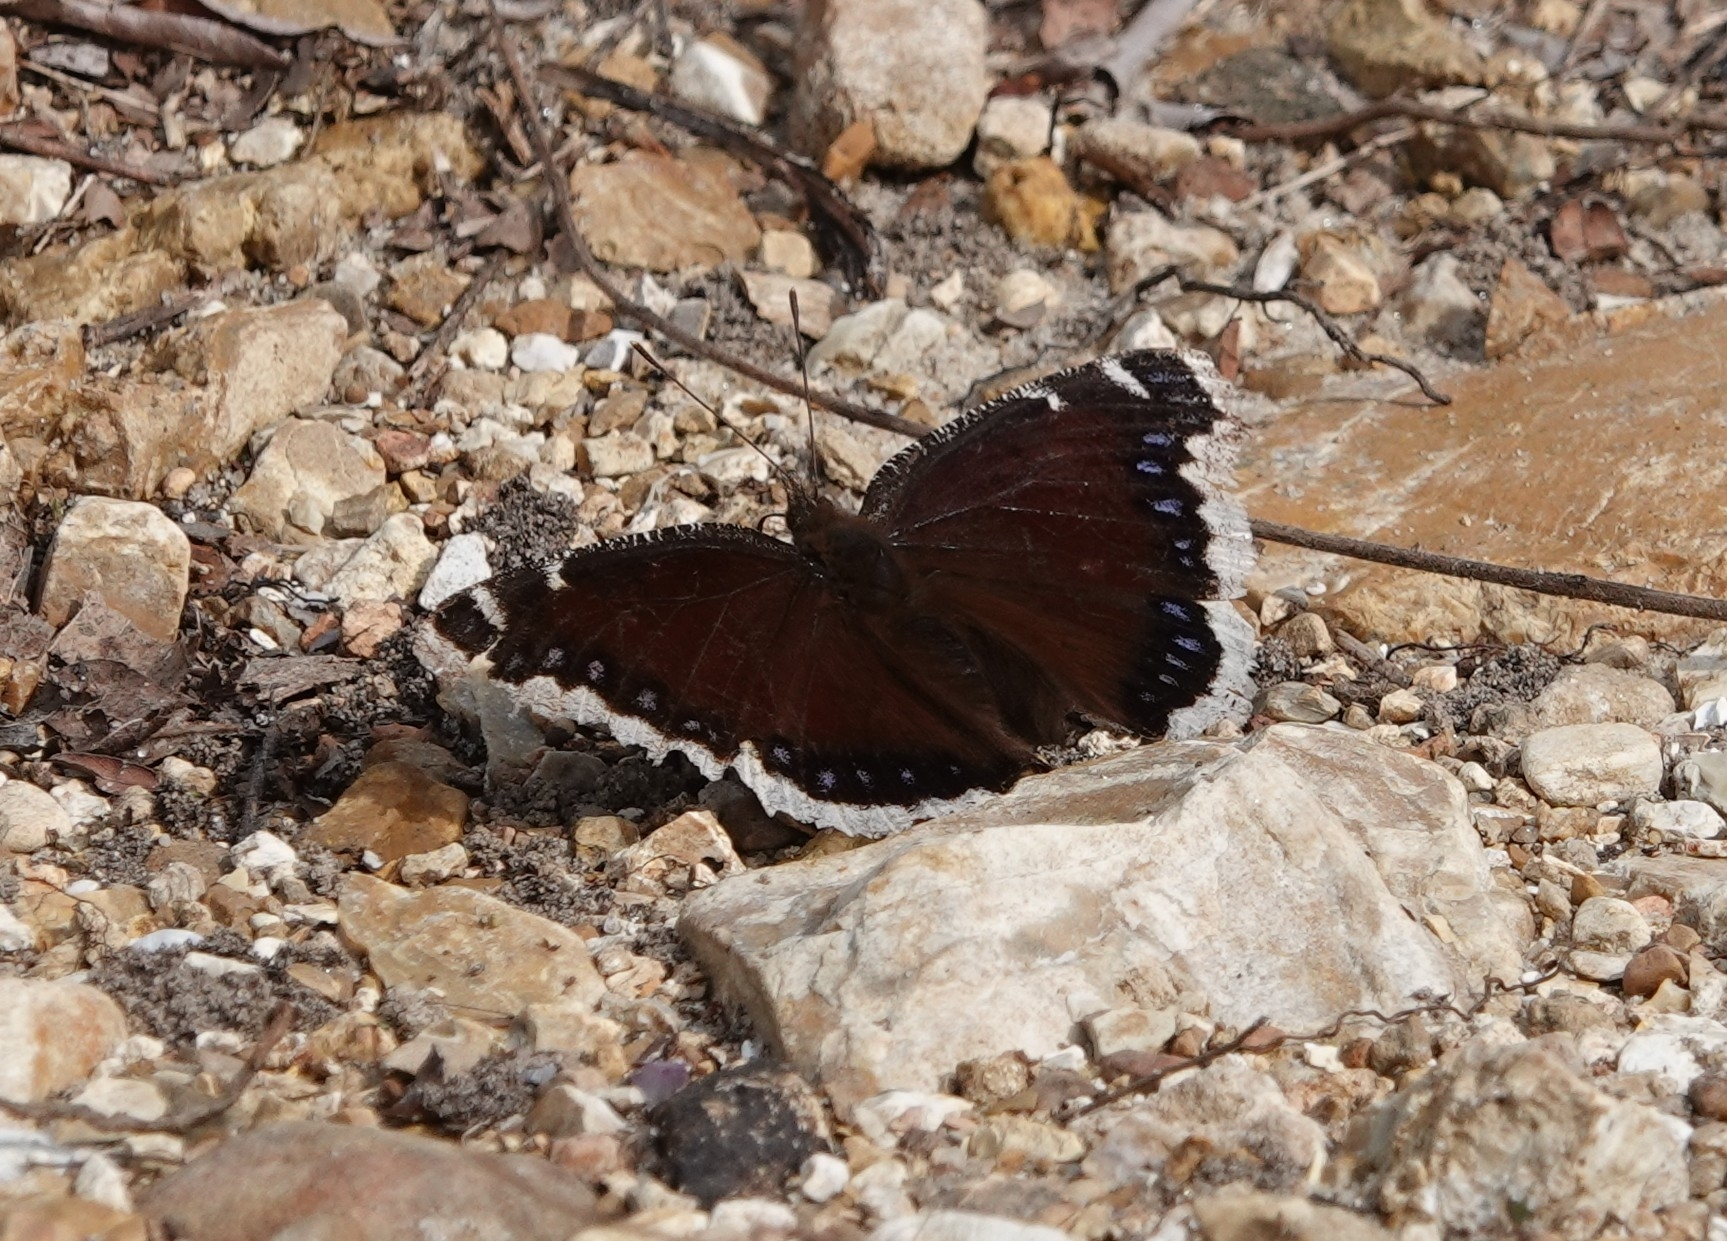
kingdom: Animalia
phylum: Arthropoda
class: Insecta
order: Lepidoptera
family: Nymphalidae
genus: Nymphalis
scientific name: Nymphalis antiopa
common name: Camberwell beauty
